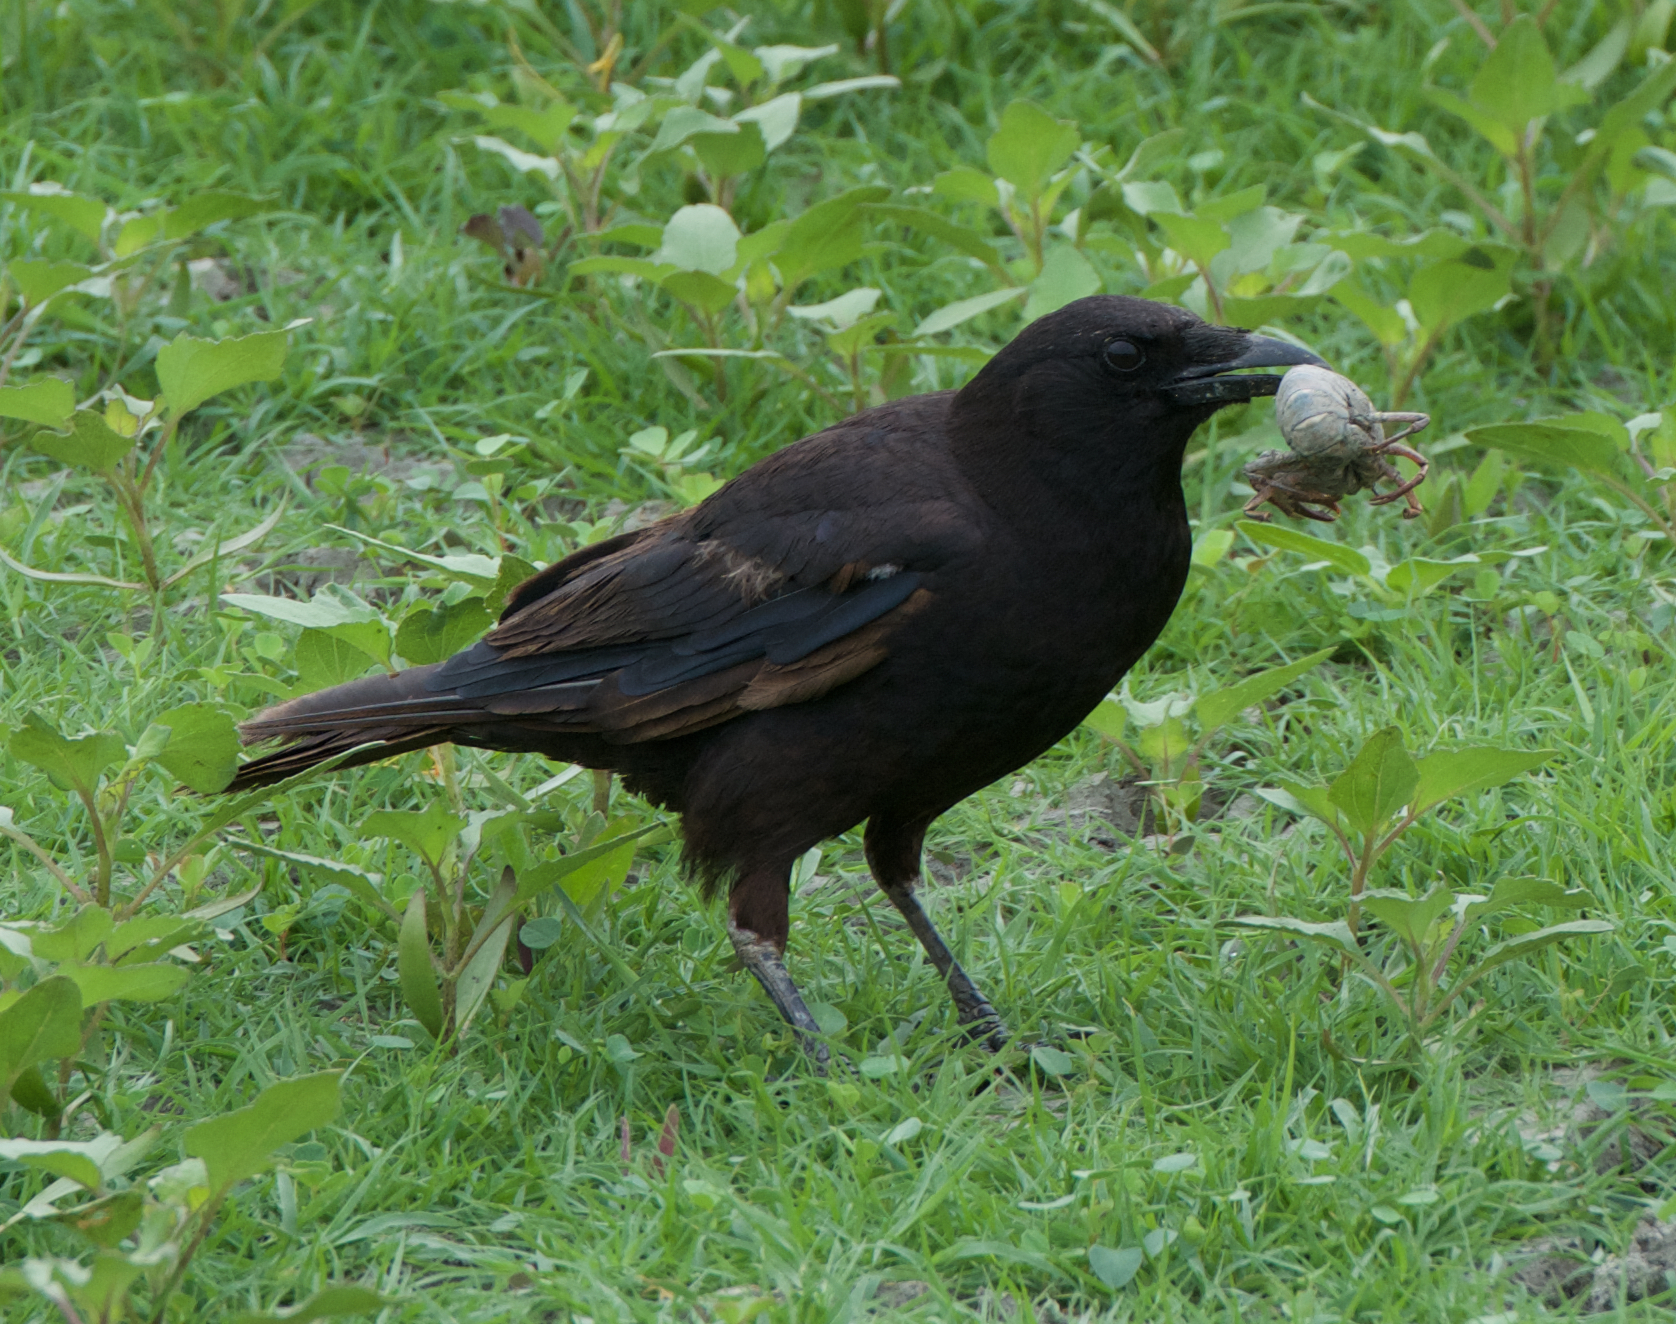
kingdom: Animalia
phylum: Chordata
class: Aves
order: Passeriformes
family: Corvidae
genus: Corvus
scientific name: Corvus brachyrhynchos
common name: American crow
